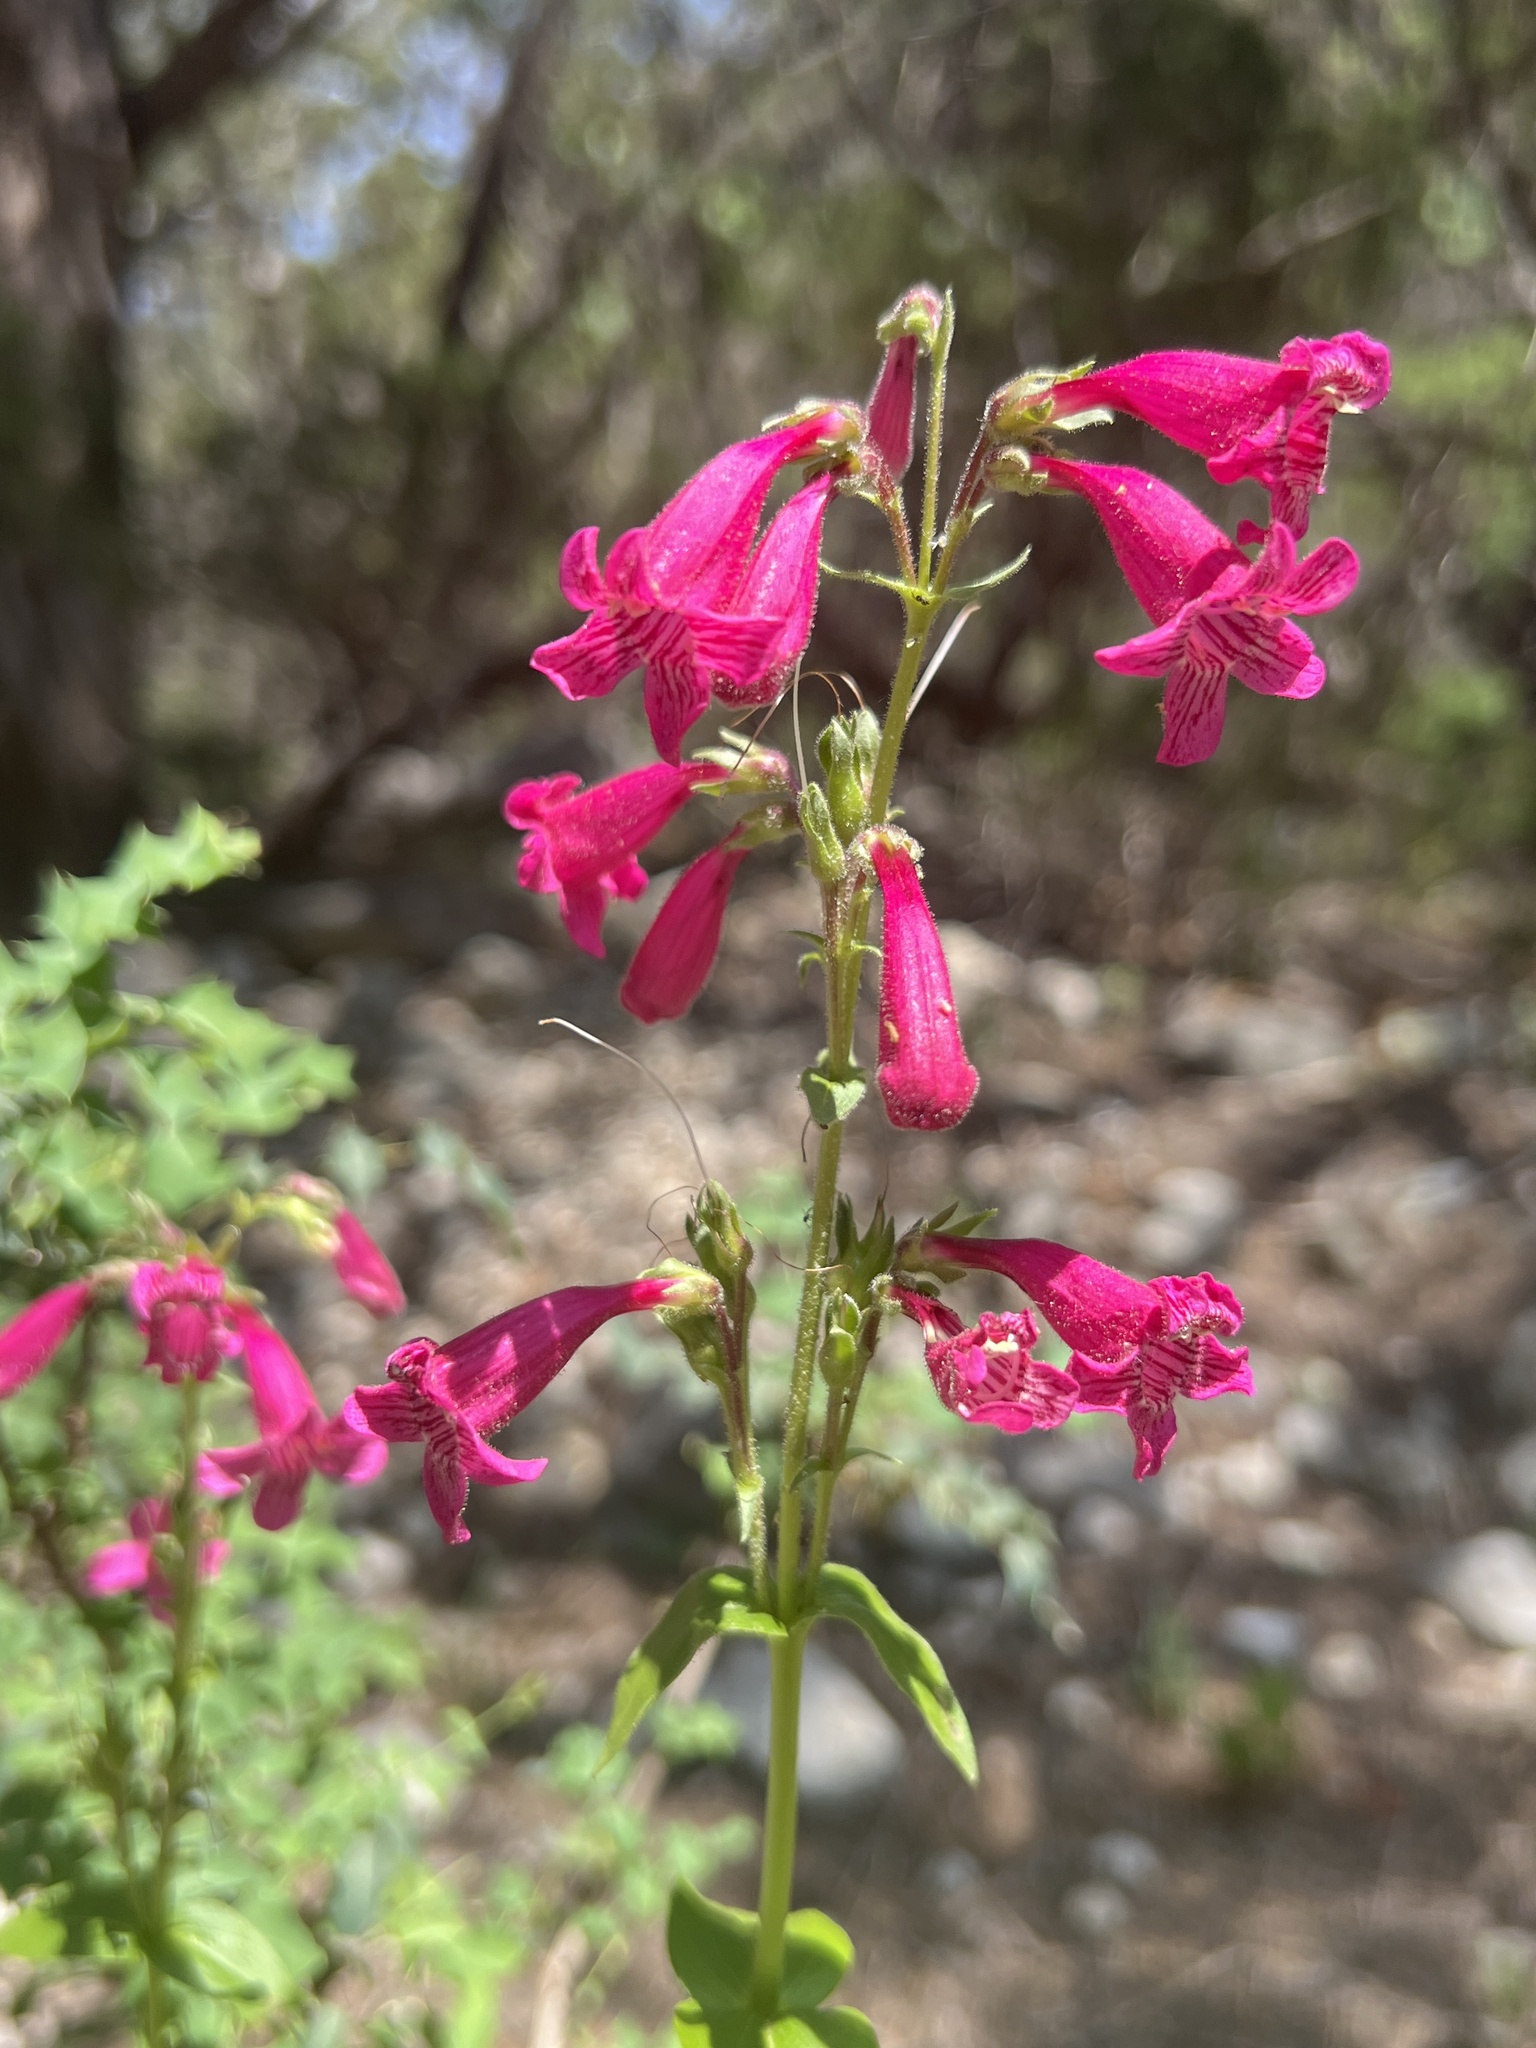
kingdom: Plantae
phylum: Tracheophyta
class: Magnoliopsida
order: Lamiales
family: Plantaginaceae
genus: Penstemon
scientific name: Penstemon triflorus
